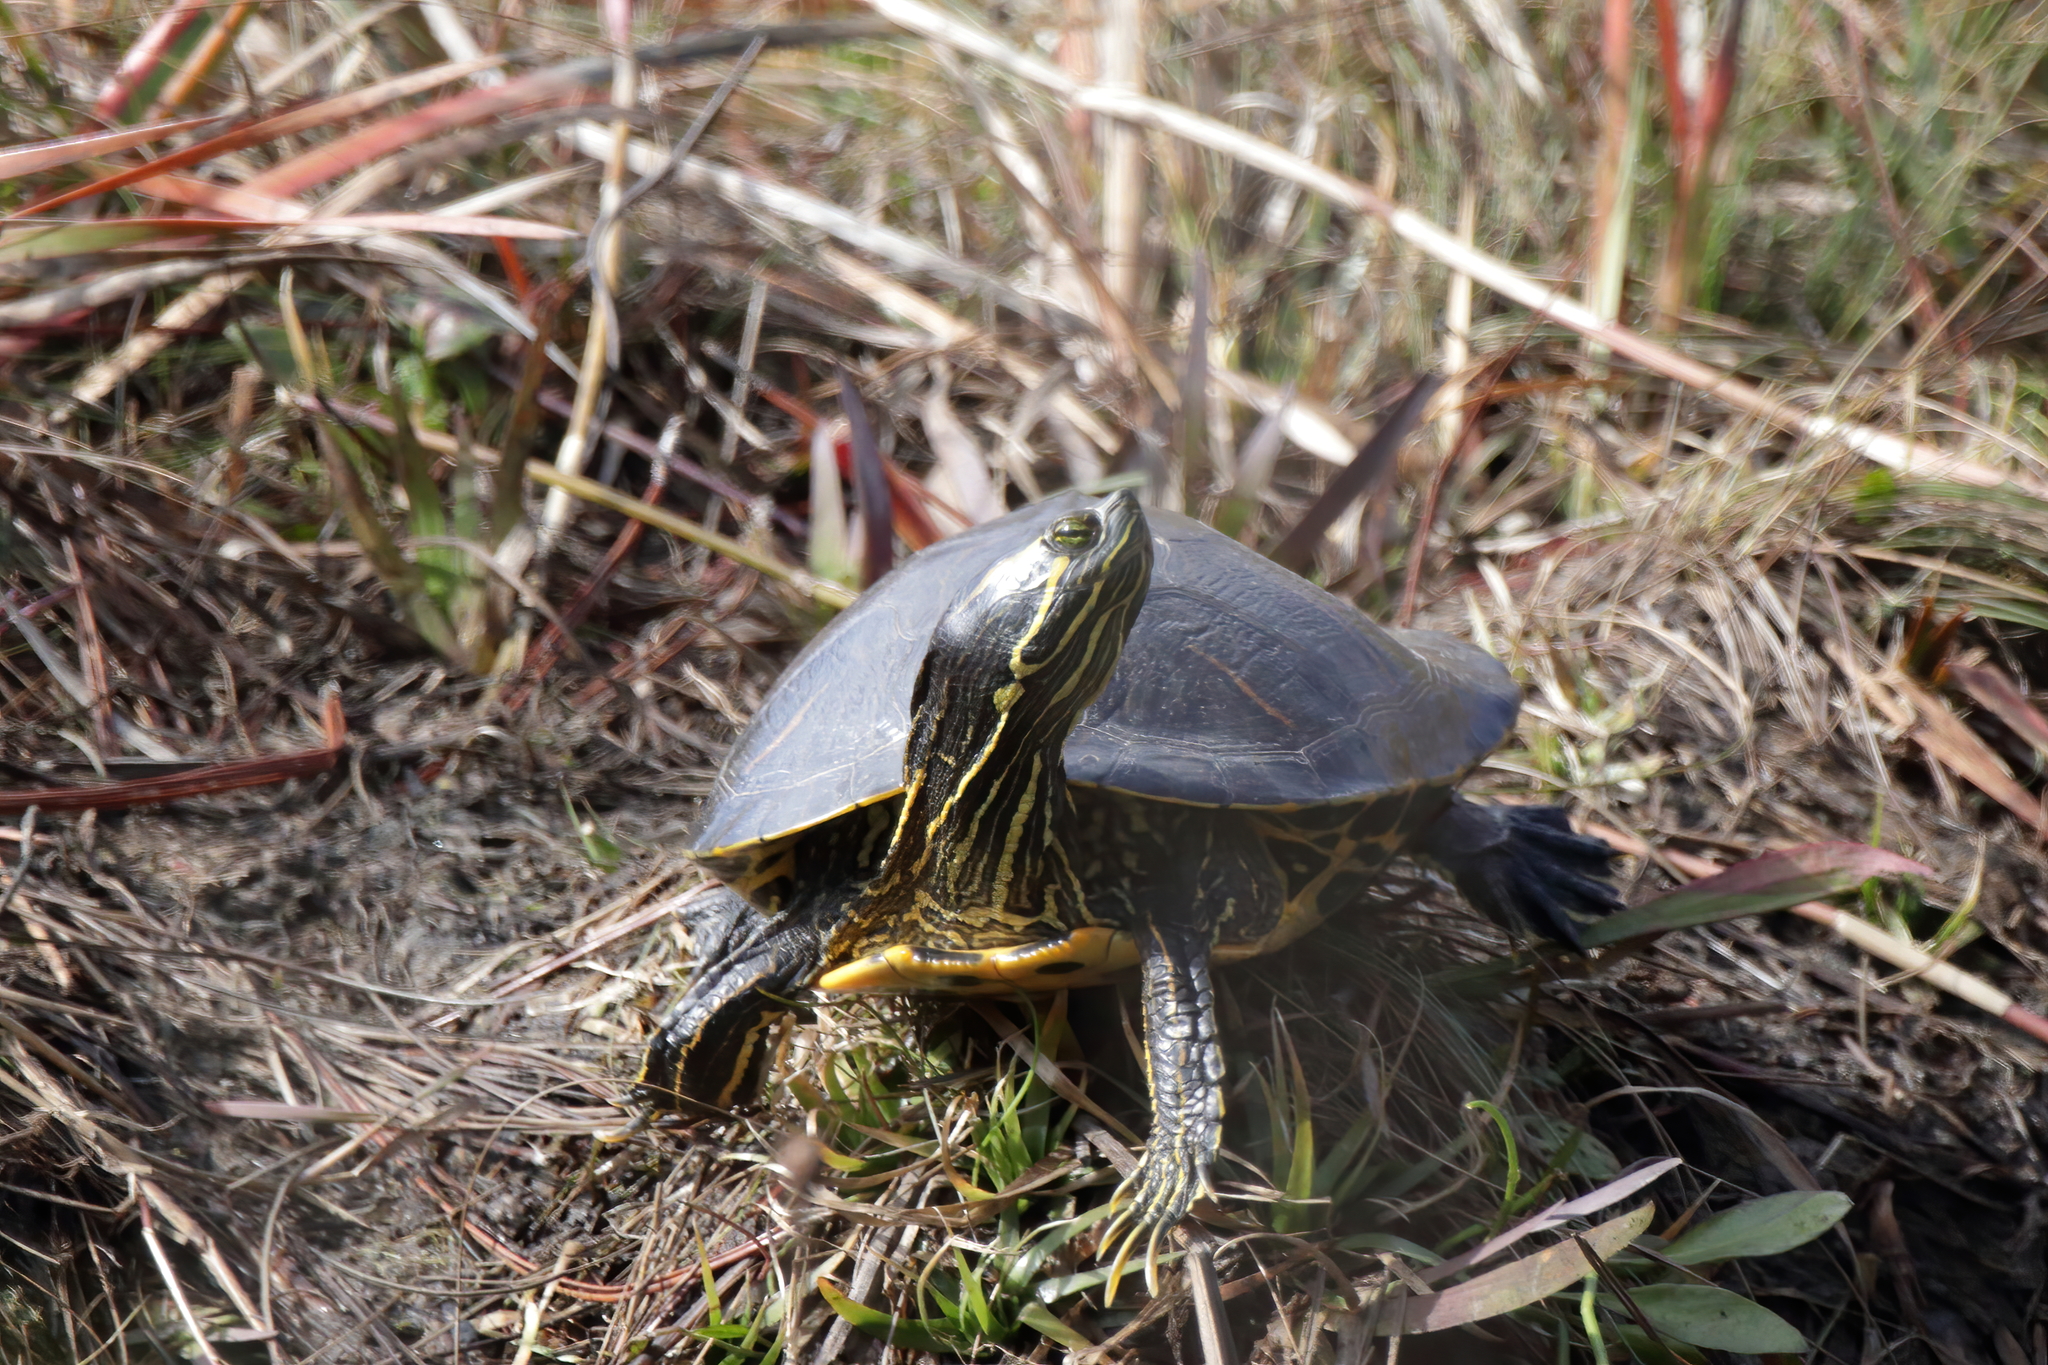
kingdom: Animalia
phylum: Chordata
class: Testudines
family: Emydidae
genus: Trachemys
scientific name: Trachemys scripta
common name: Slider
